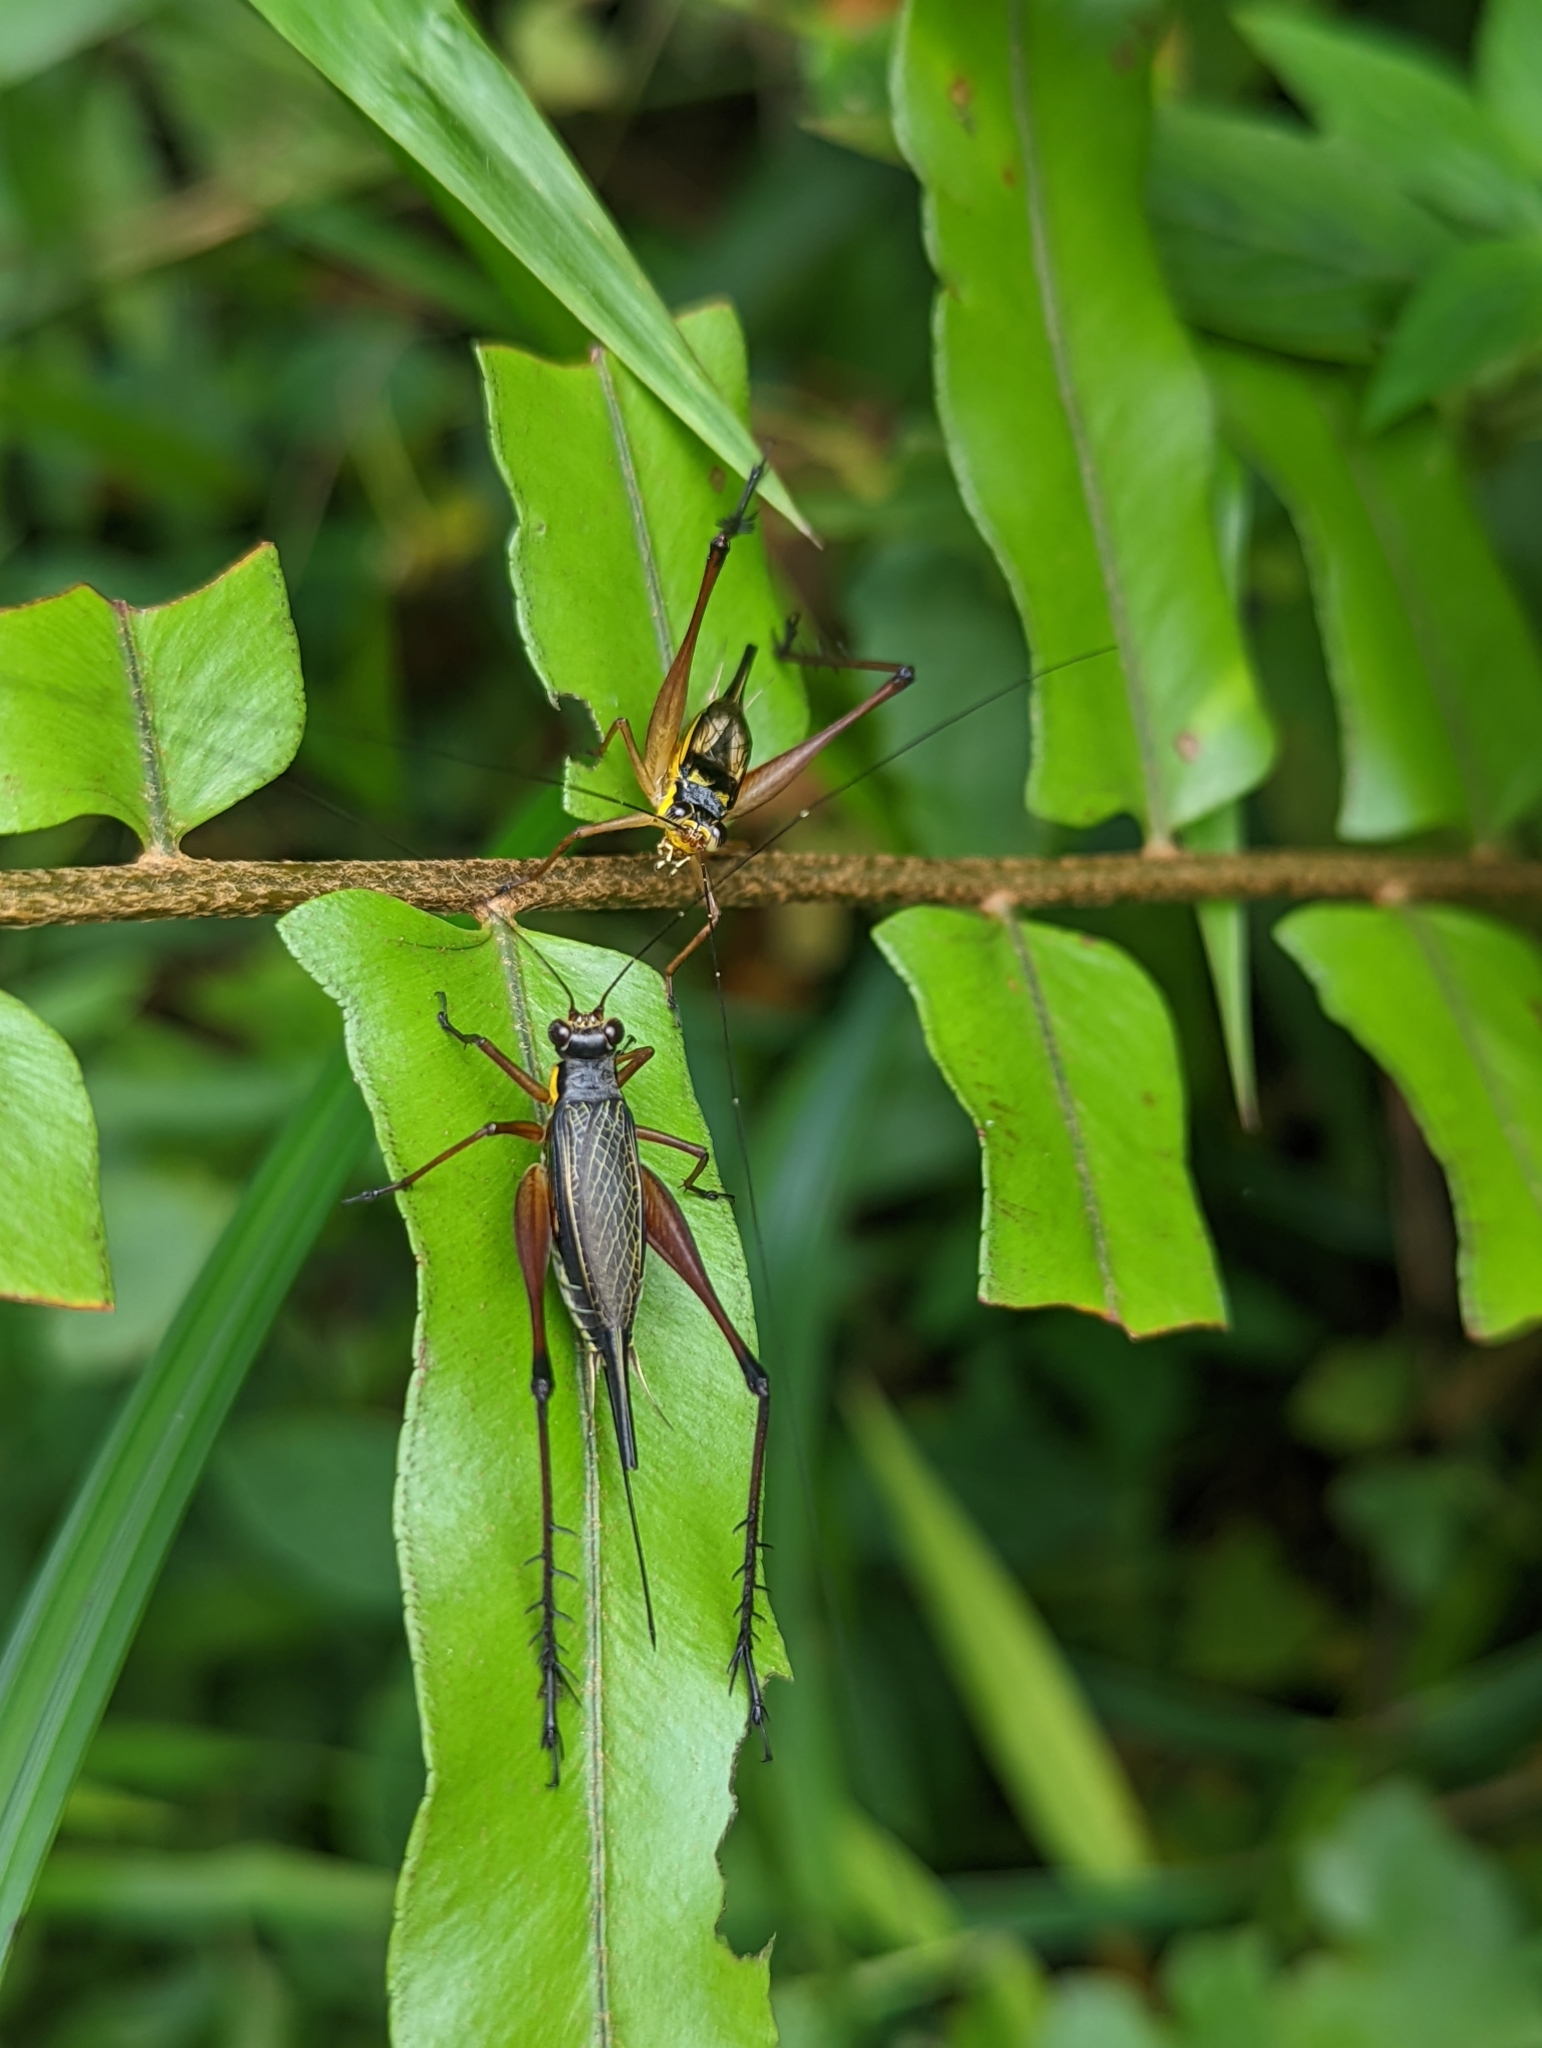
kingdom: Animalia
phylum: Arthropoda
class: Insecta
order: Orthoptera
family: Gryllidae
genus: Nisitrus
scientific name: Nisitrus malaya
